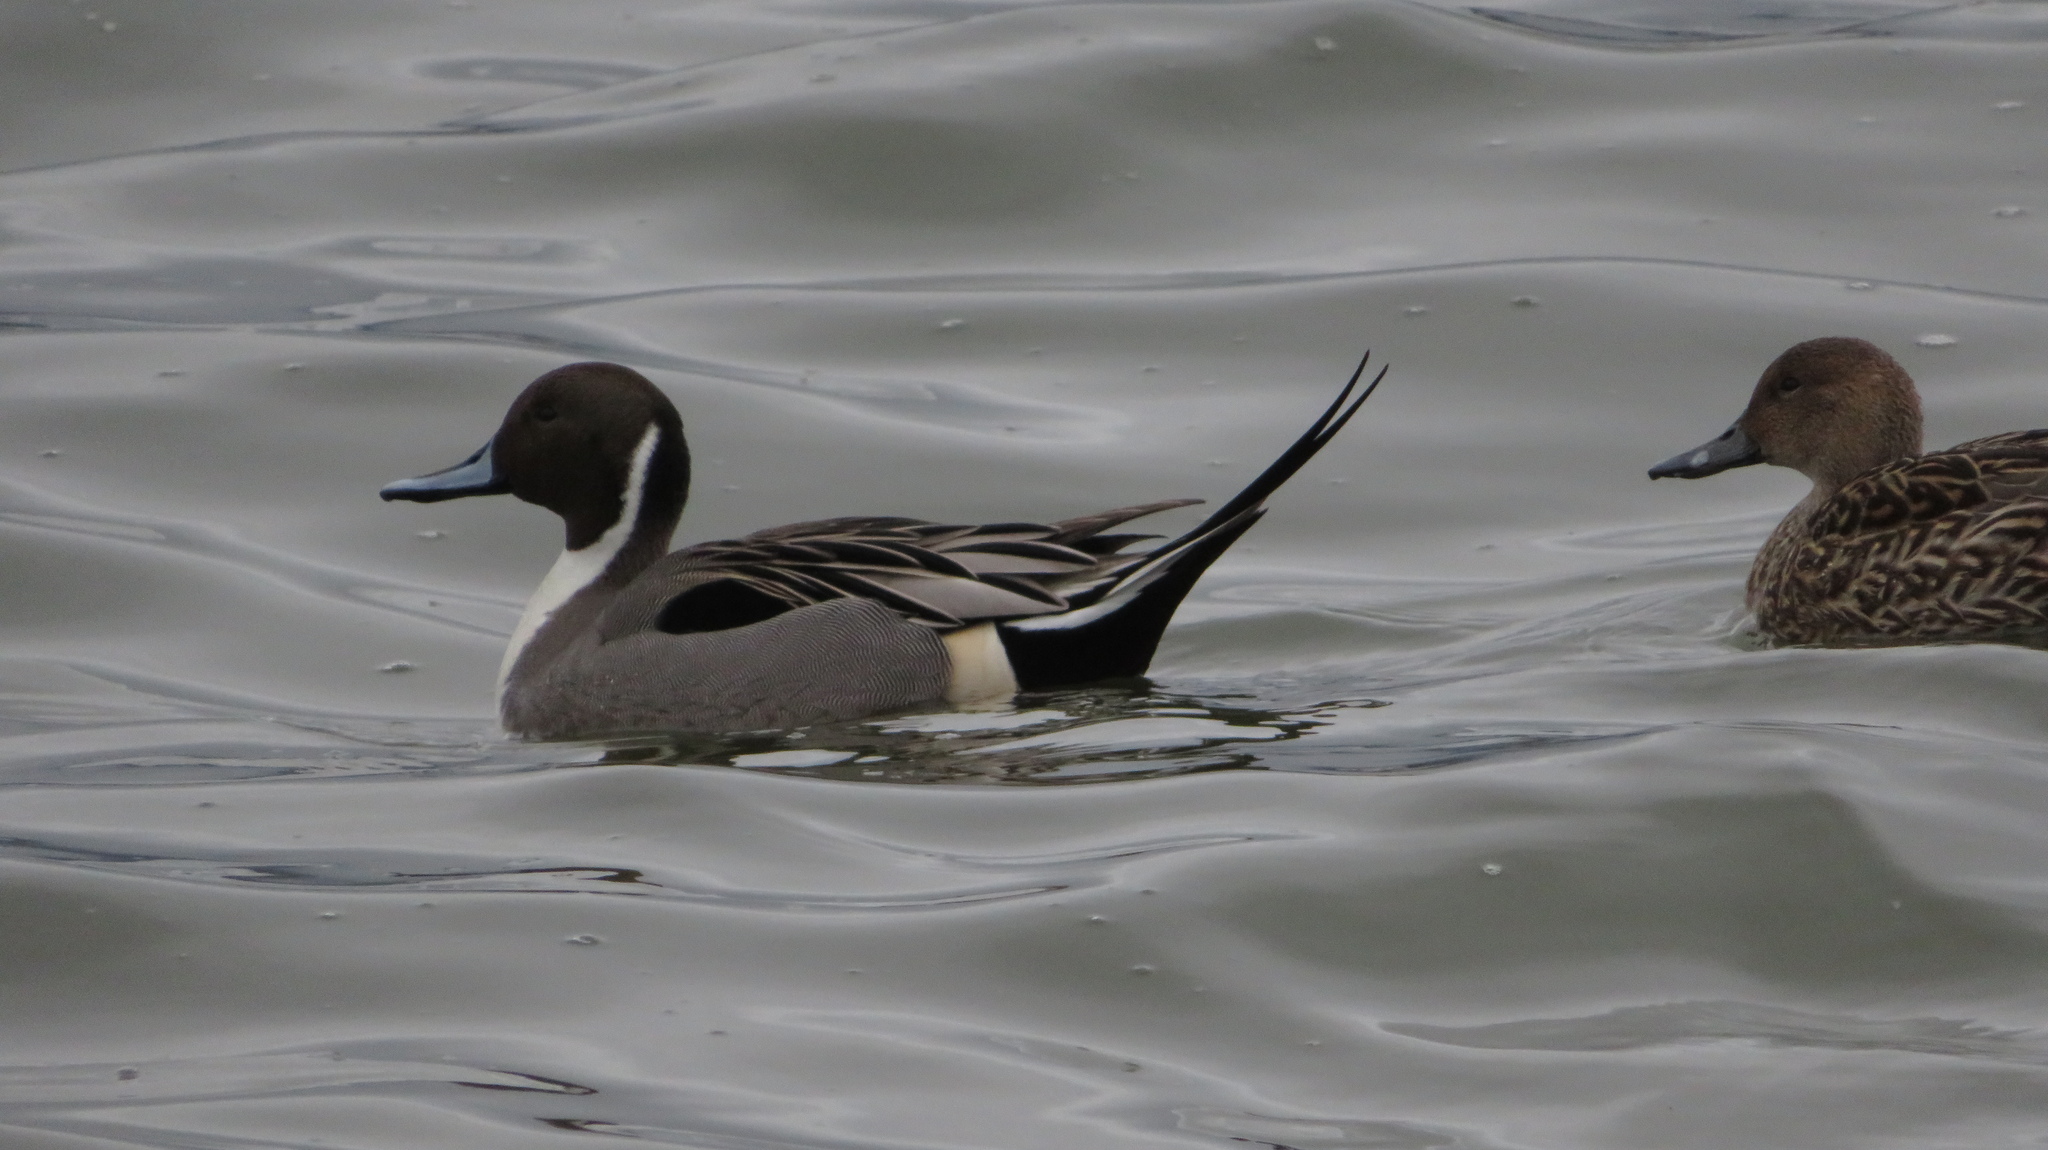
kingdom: Animalia
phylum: Chordata
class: Aves
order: Anseriformes
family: Anatidae
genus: Anas
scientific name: Anas acuta
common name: Northern pintail
